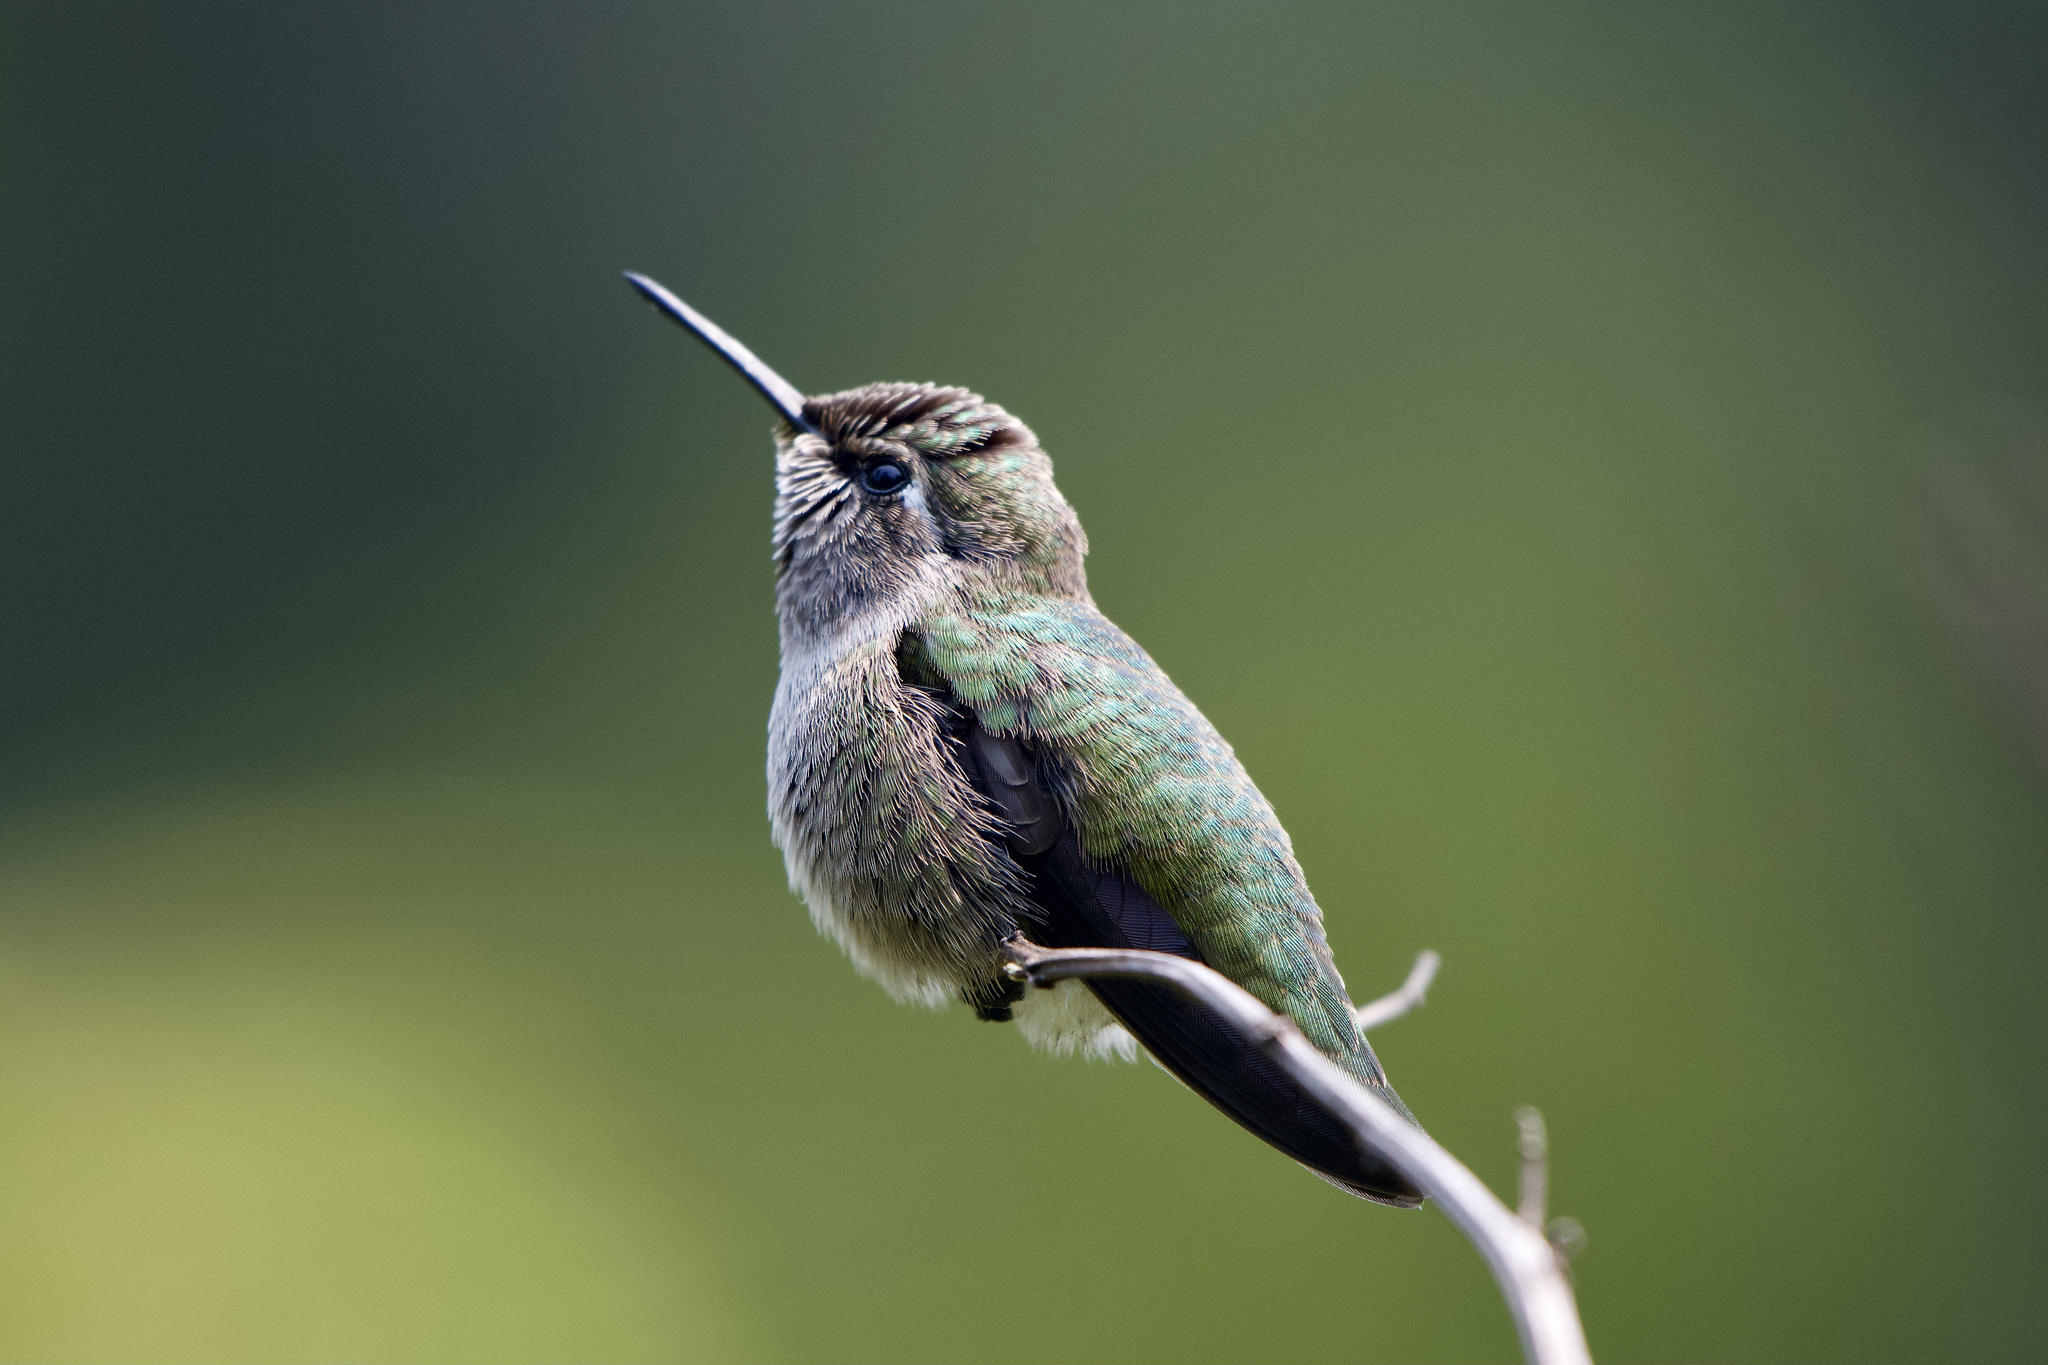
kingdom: Animalia
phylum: Chordata
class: Aves
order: Apodiformes
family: Trochilidae
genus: Calypte
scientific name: Calypte anna
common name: Anna's hummingbird
